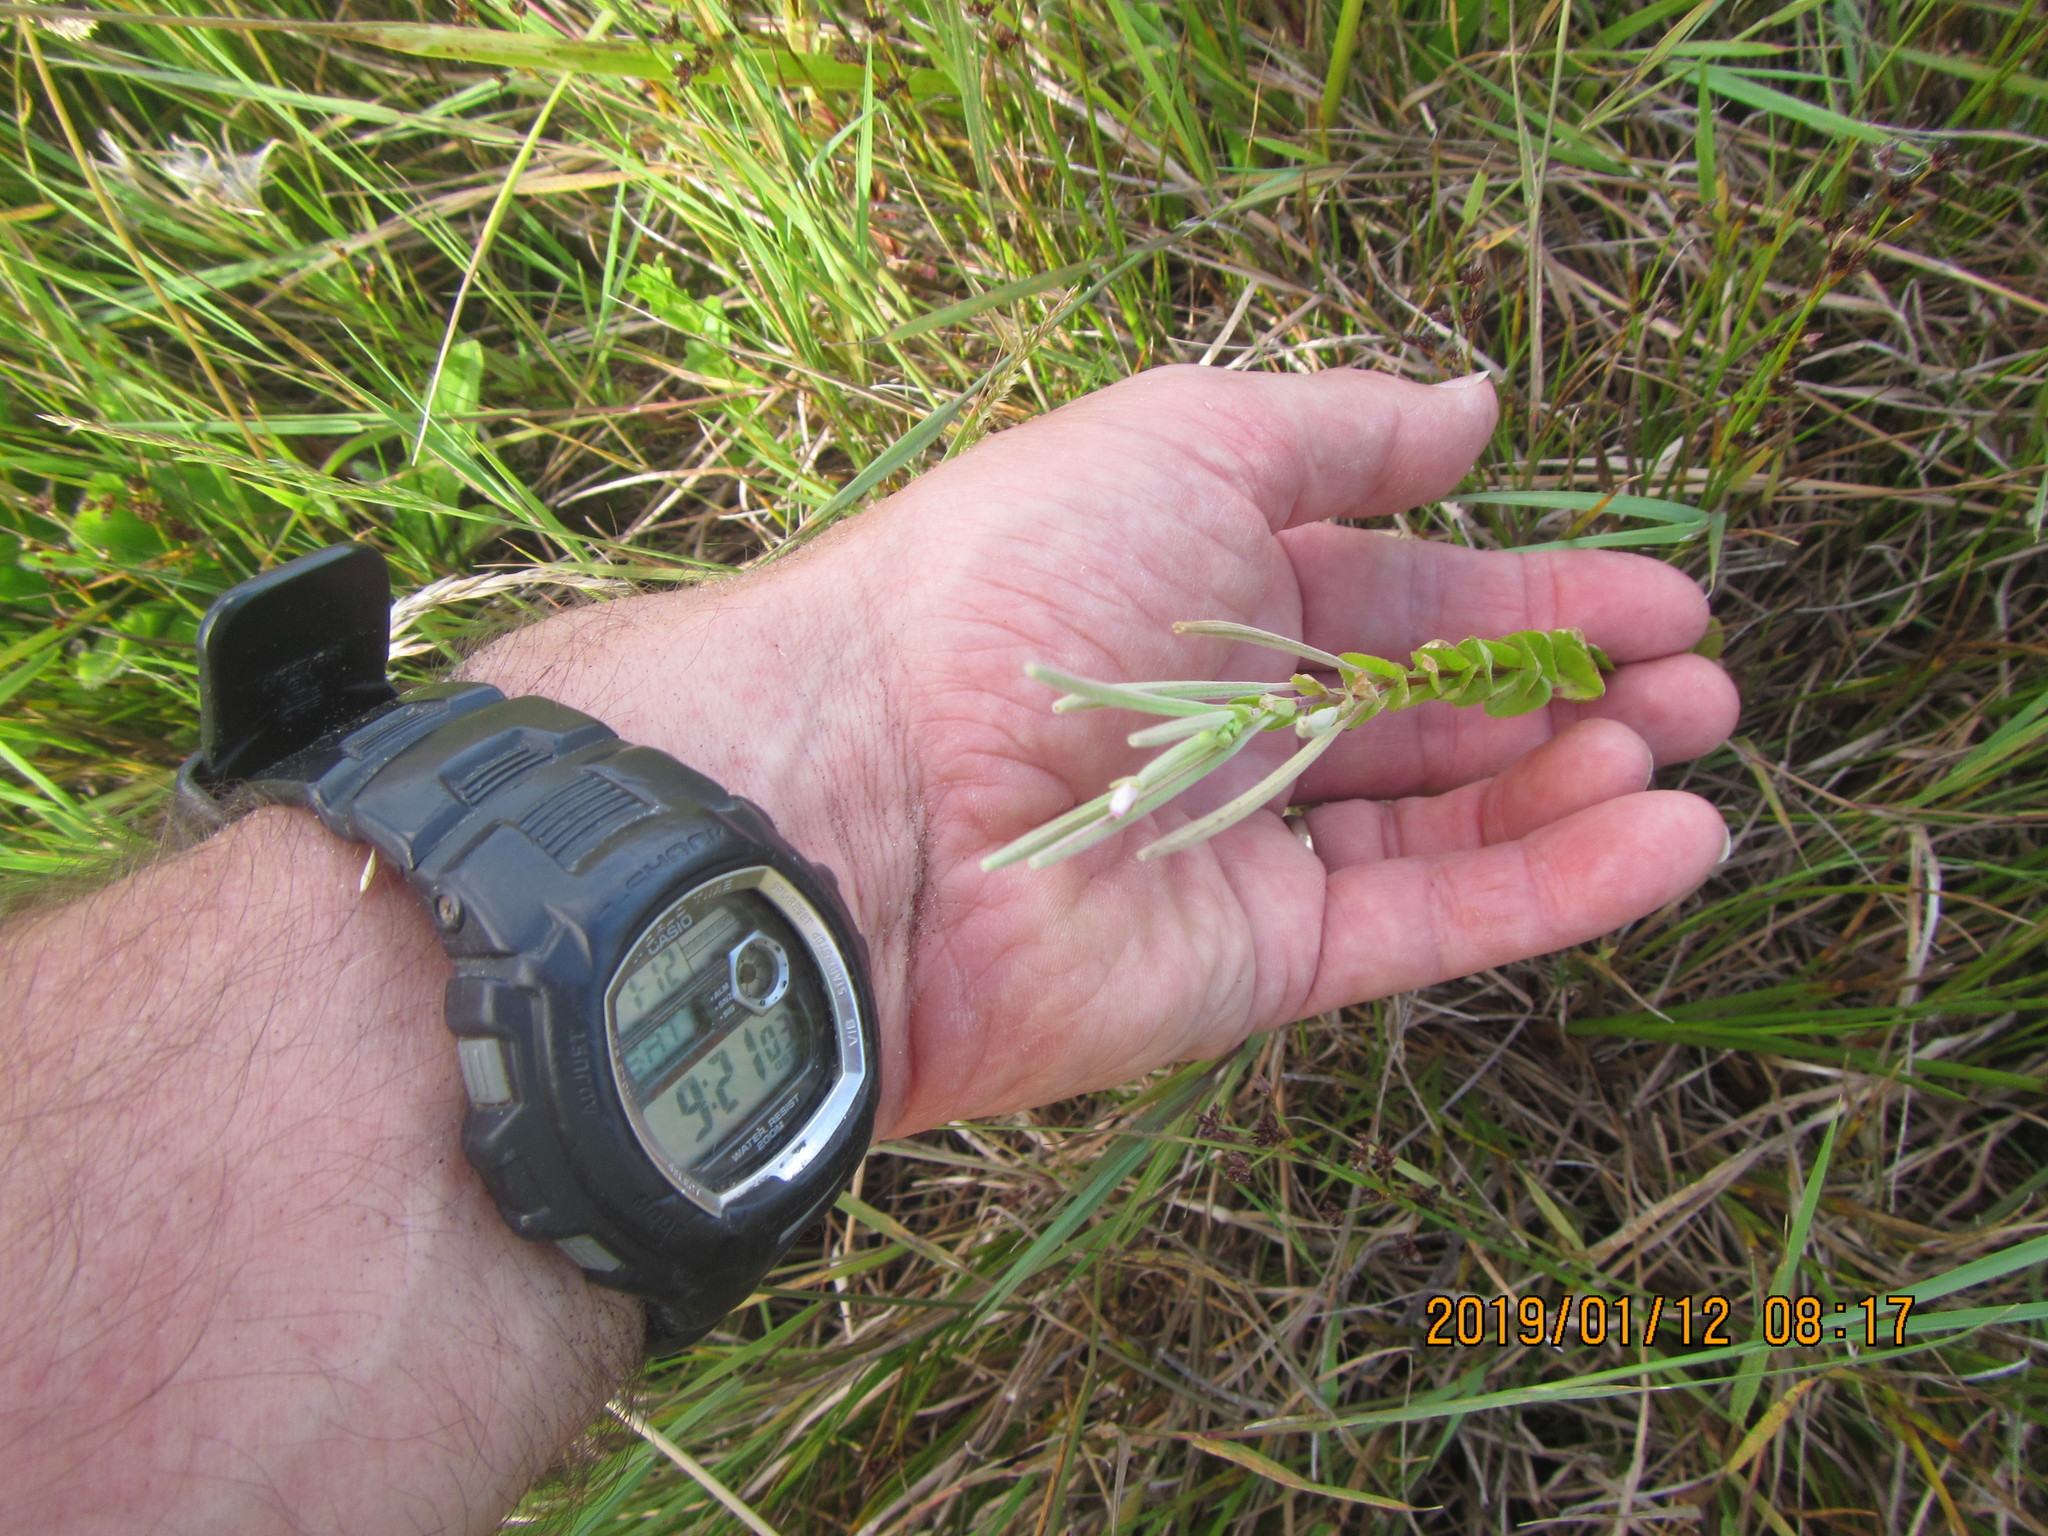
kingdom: Plantae
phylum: Tracheophyta
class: Magnoliopsida
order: Myrtales
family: Onagraceae
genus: Epilobium
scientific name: Epilobium billardiereanum
